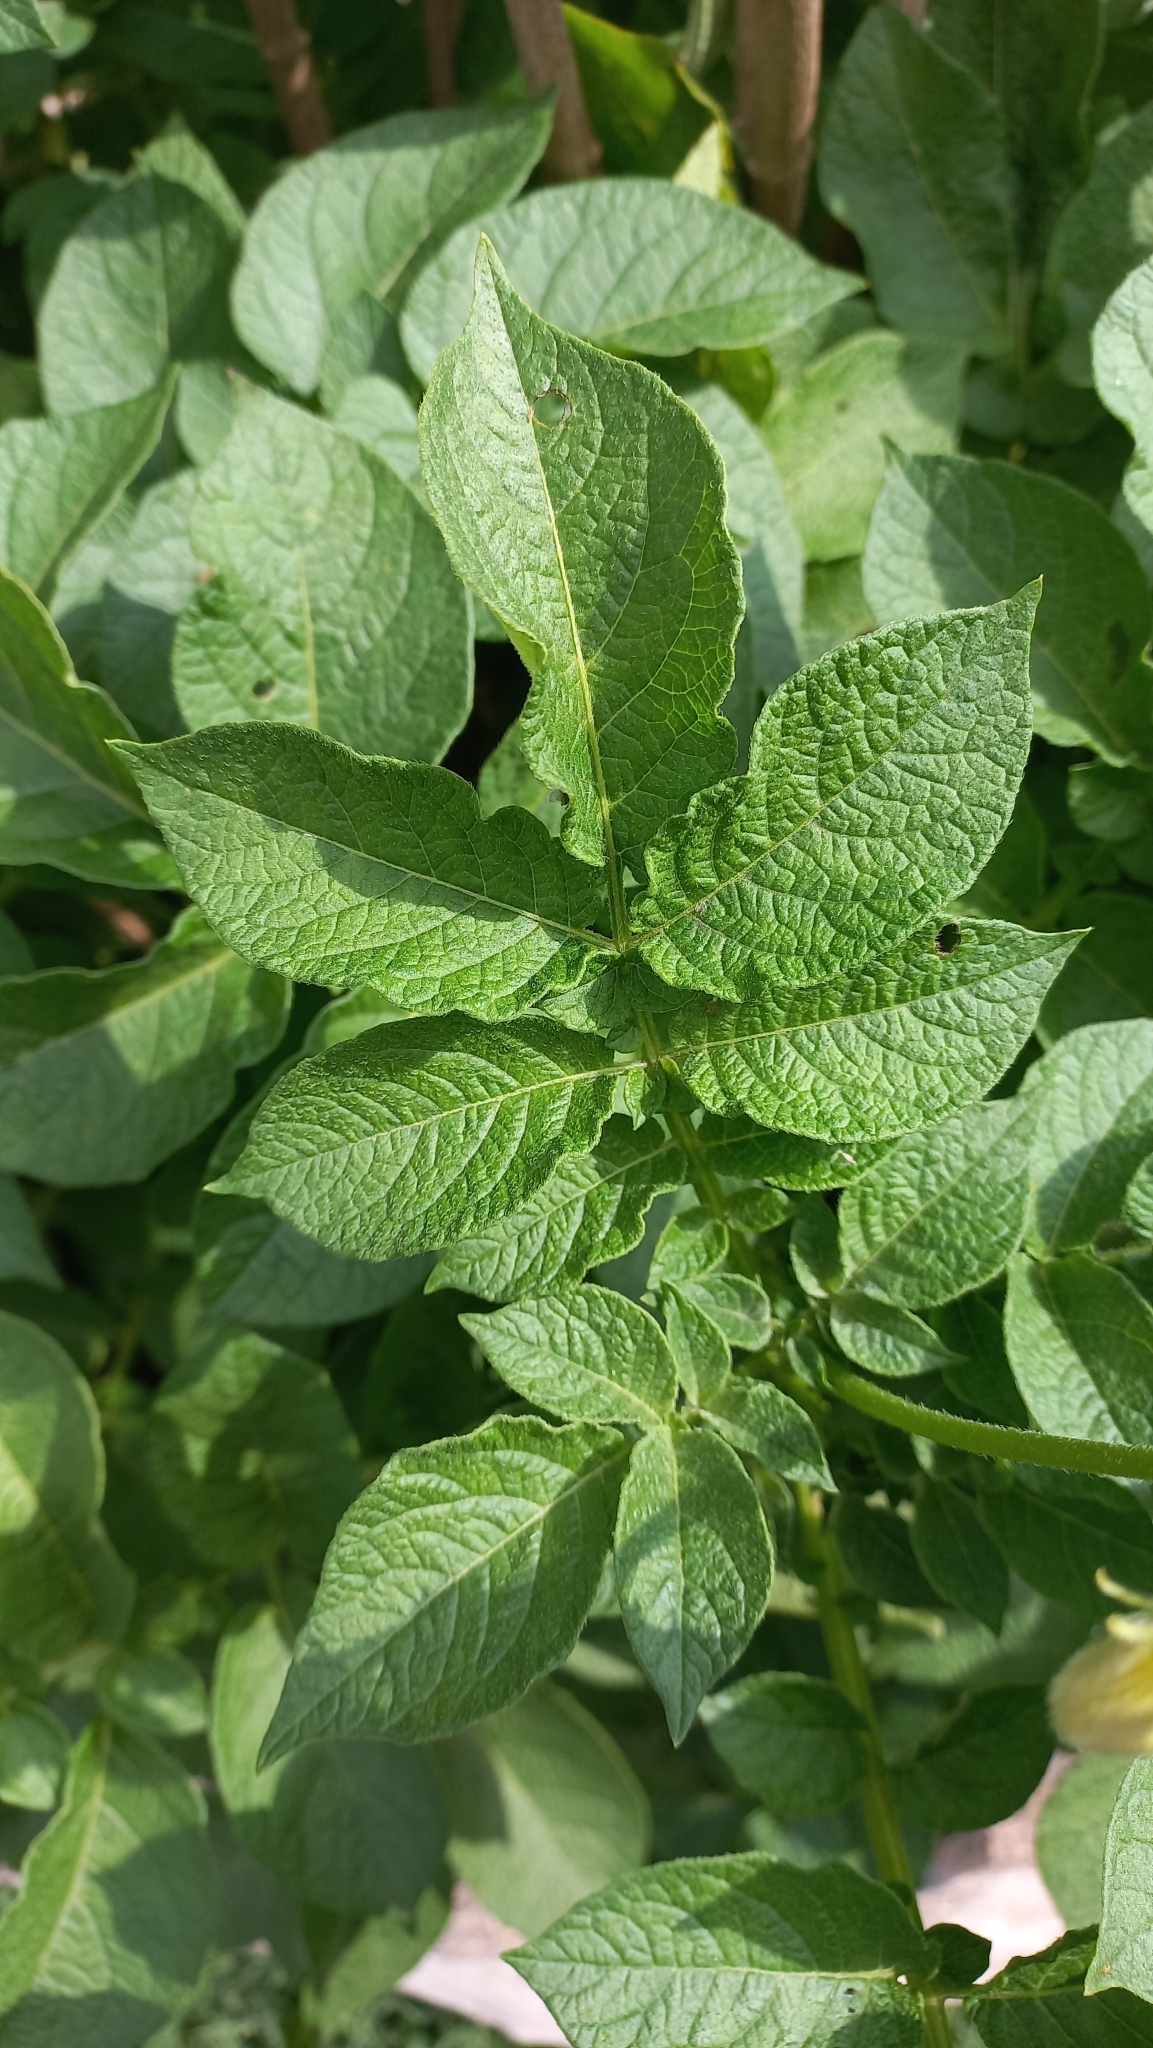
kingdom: Plantae
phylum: Tracheophyta
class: Magnoliopsida
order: Solanales
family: Solanaceae
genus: Solanum
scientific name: Solanum tuberosum
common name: Potato
